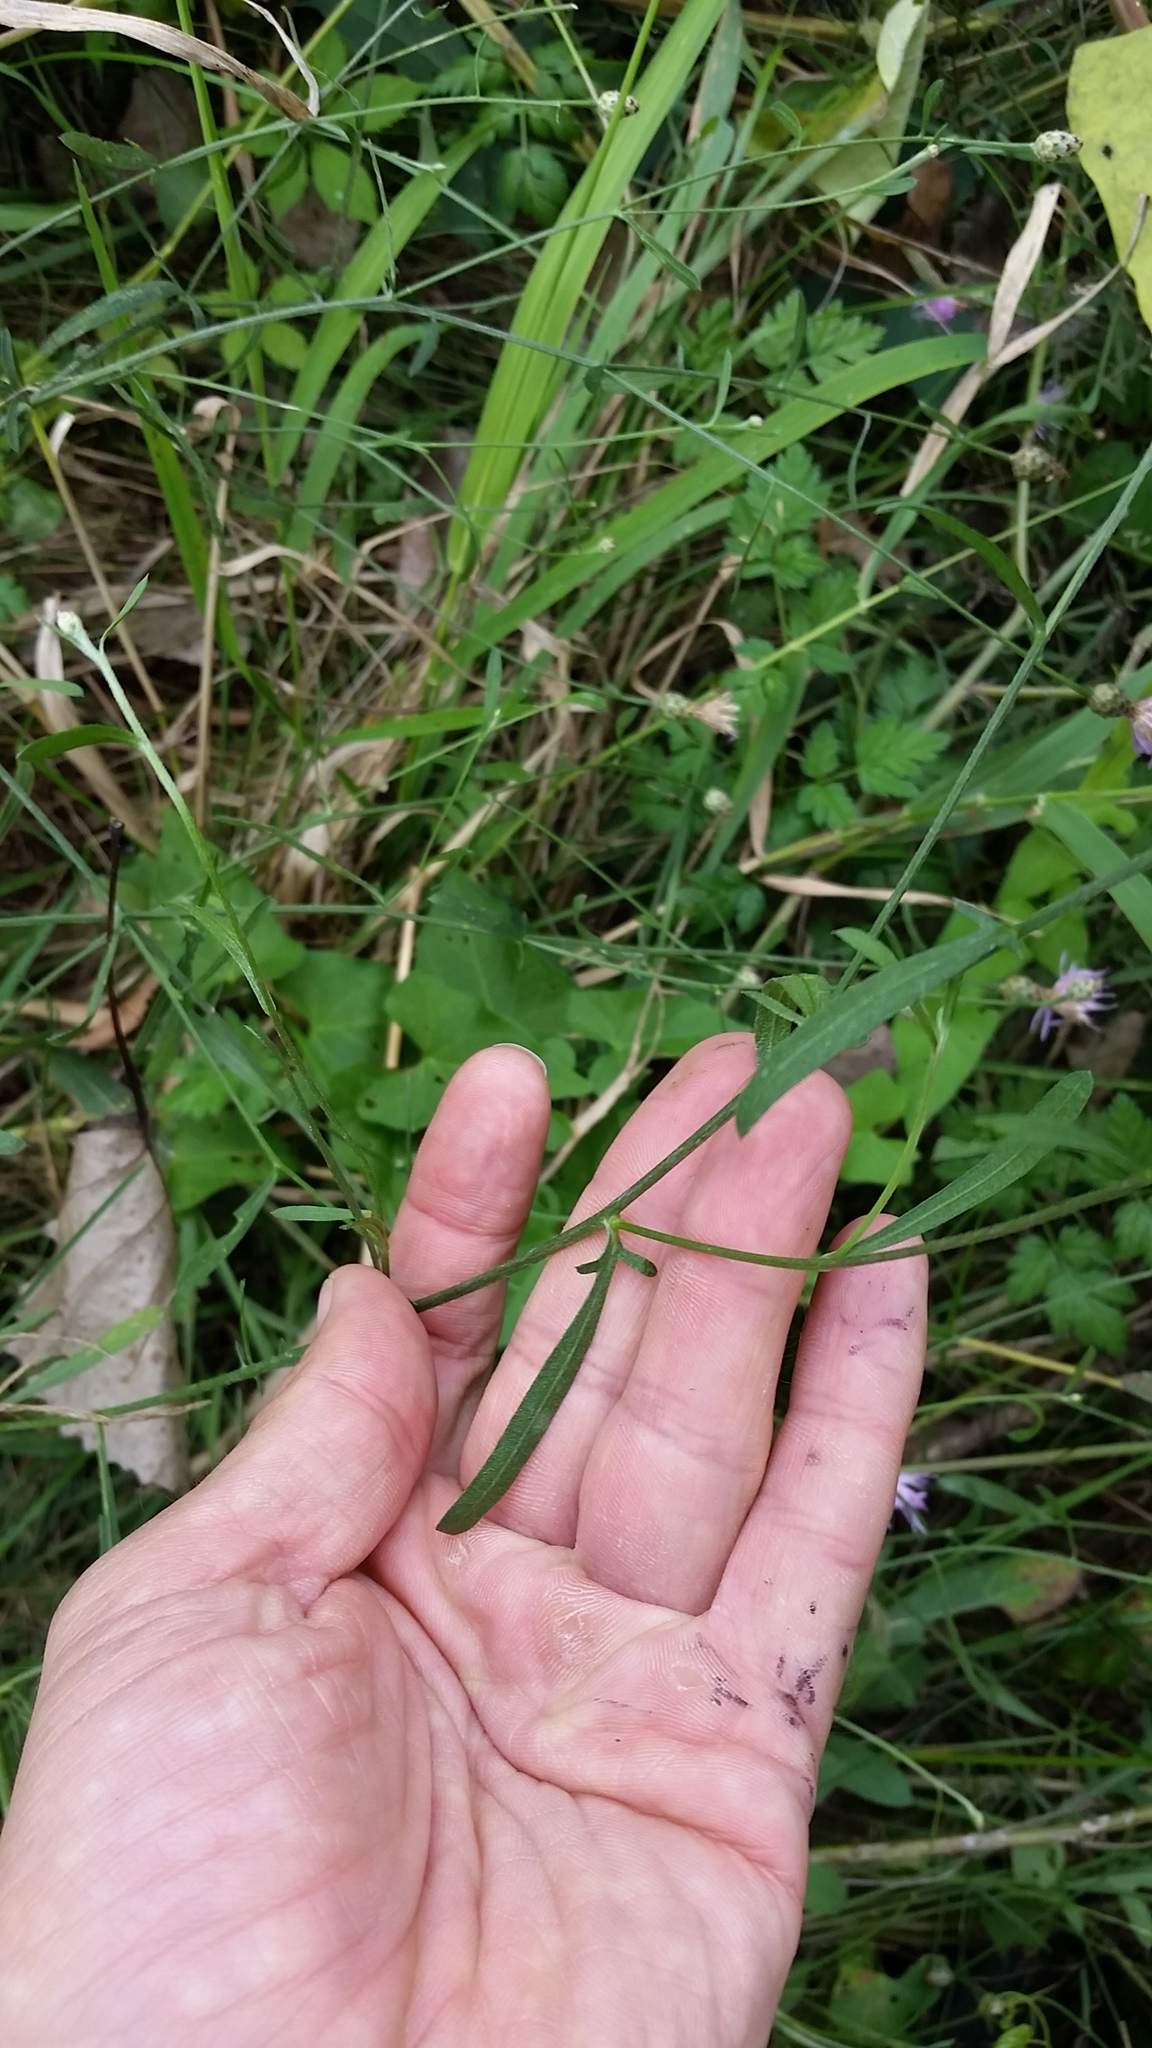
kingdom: Plantae
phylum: Tracheophyta
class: Magnoliopsida
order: Asterales
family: Asteraceae
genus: Centaurea
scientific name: Centaurea australis
